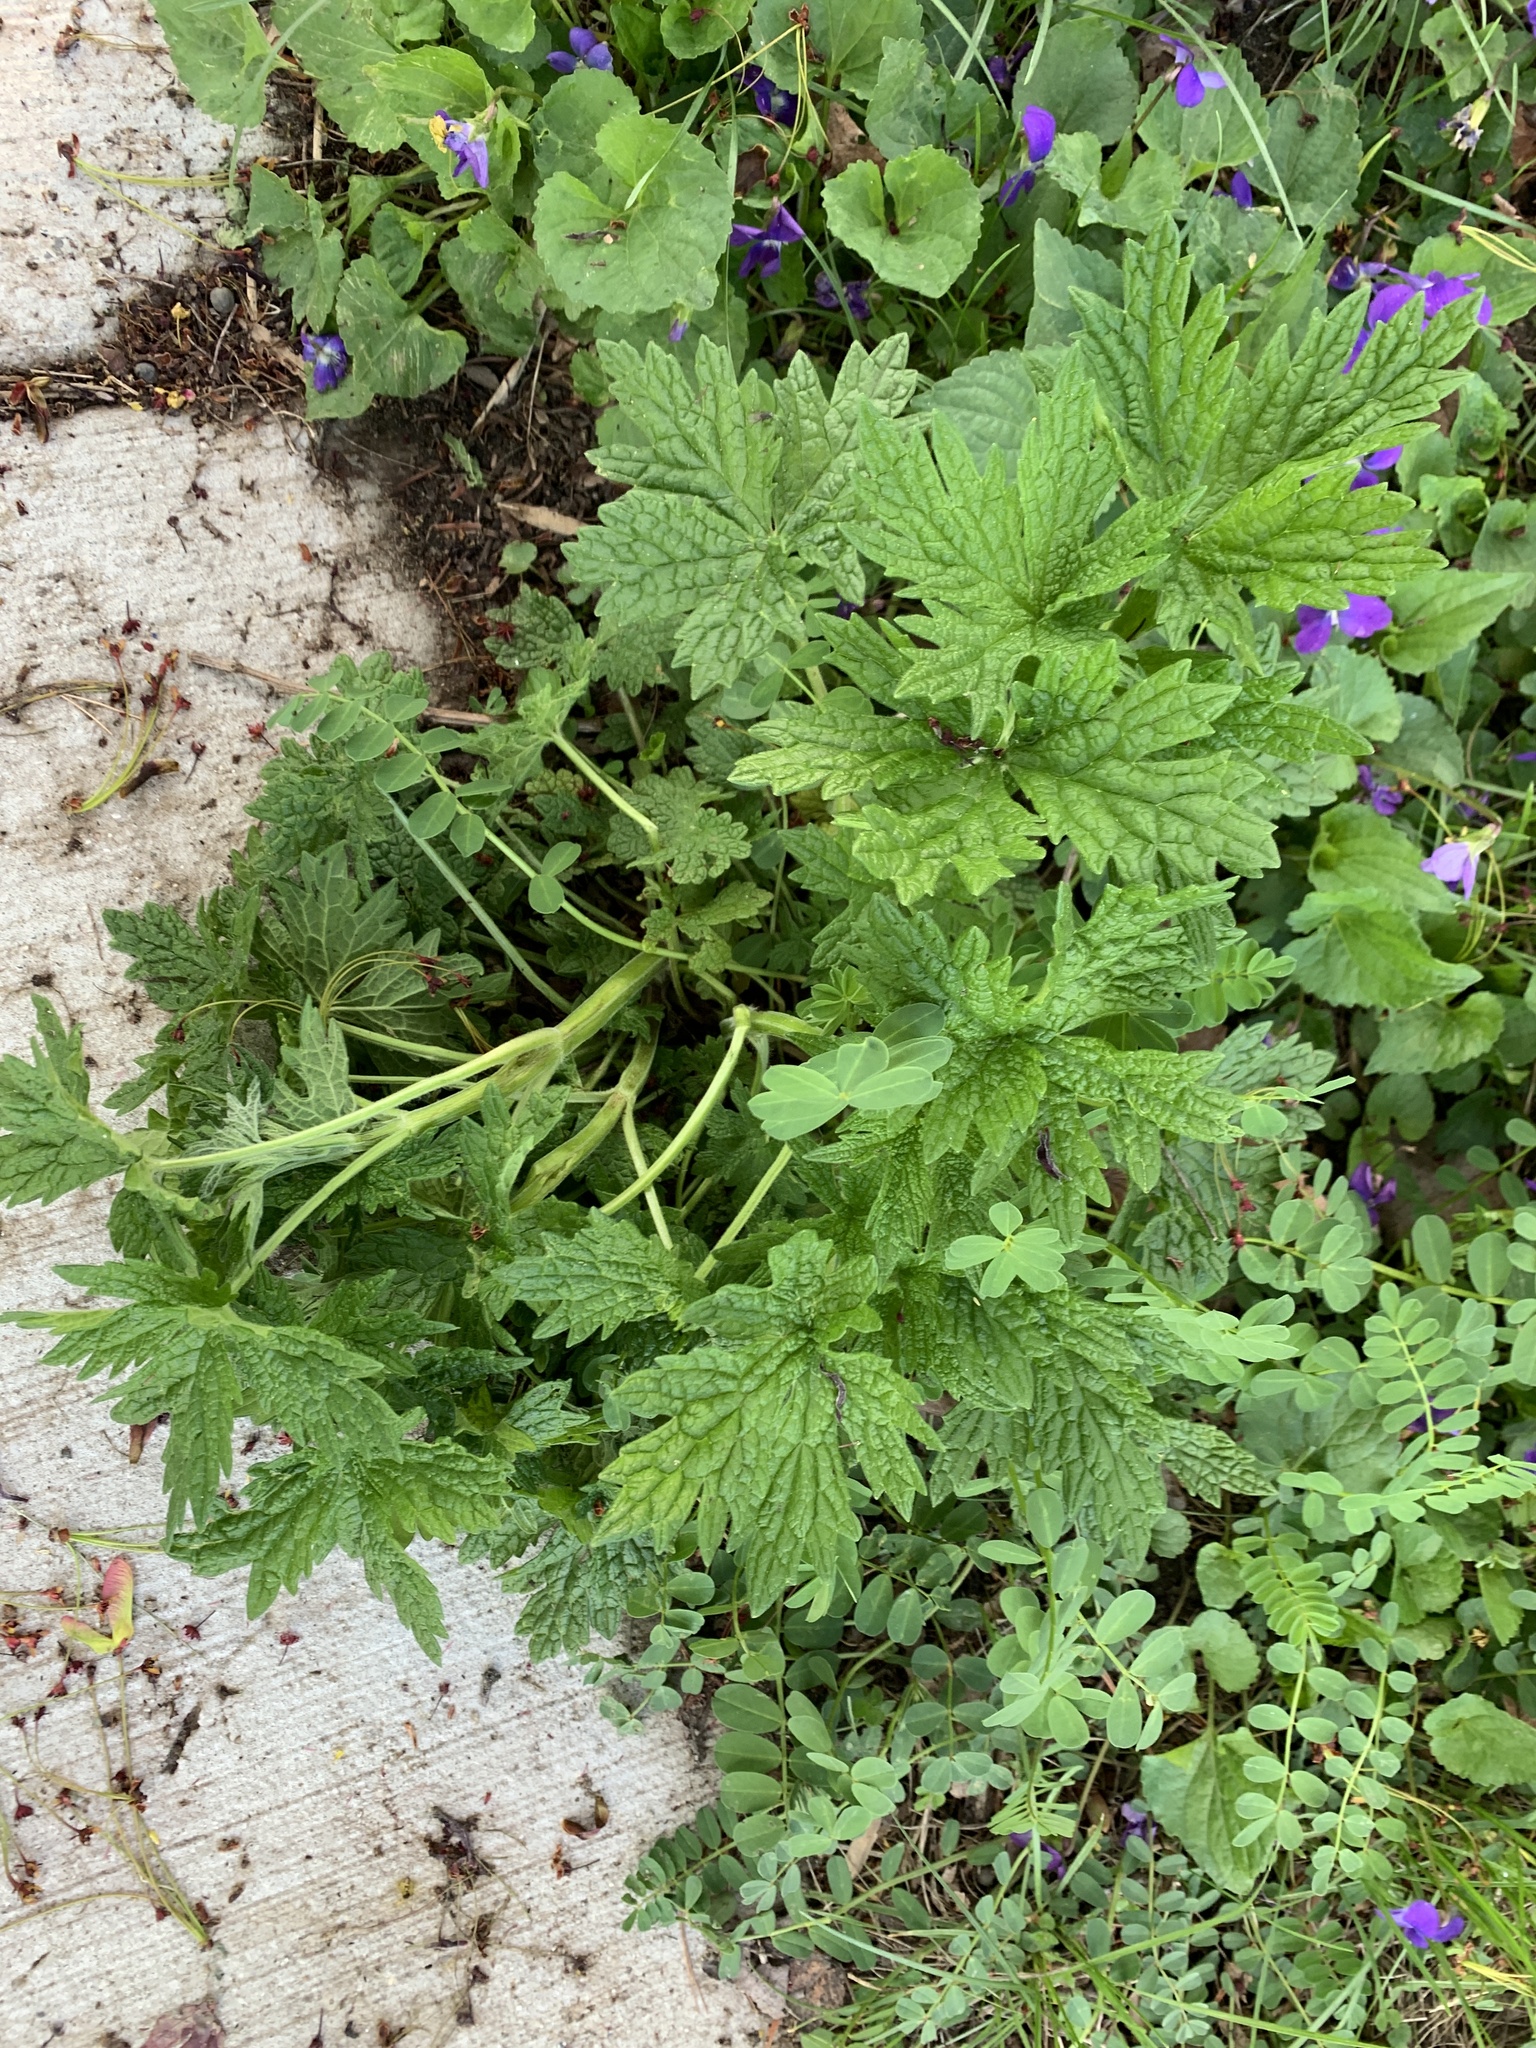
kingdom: Plantae
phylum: Tracheophyta
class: Magnoliopsida
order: Lamiales
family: Lamiaceae
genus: Leonurus
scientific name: Leonurus cardiaca
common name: Motherwort
